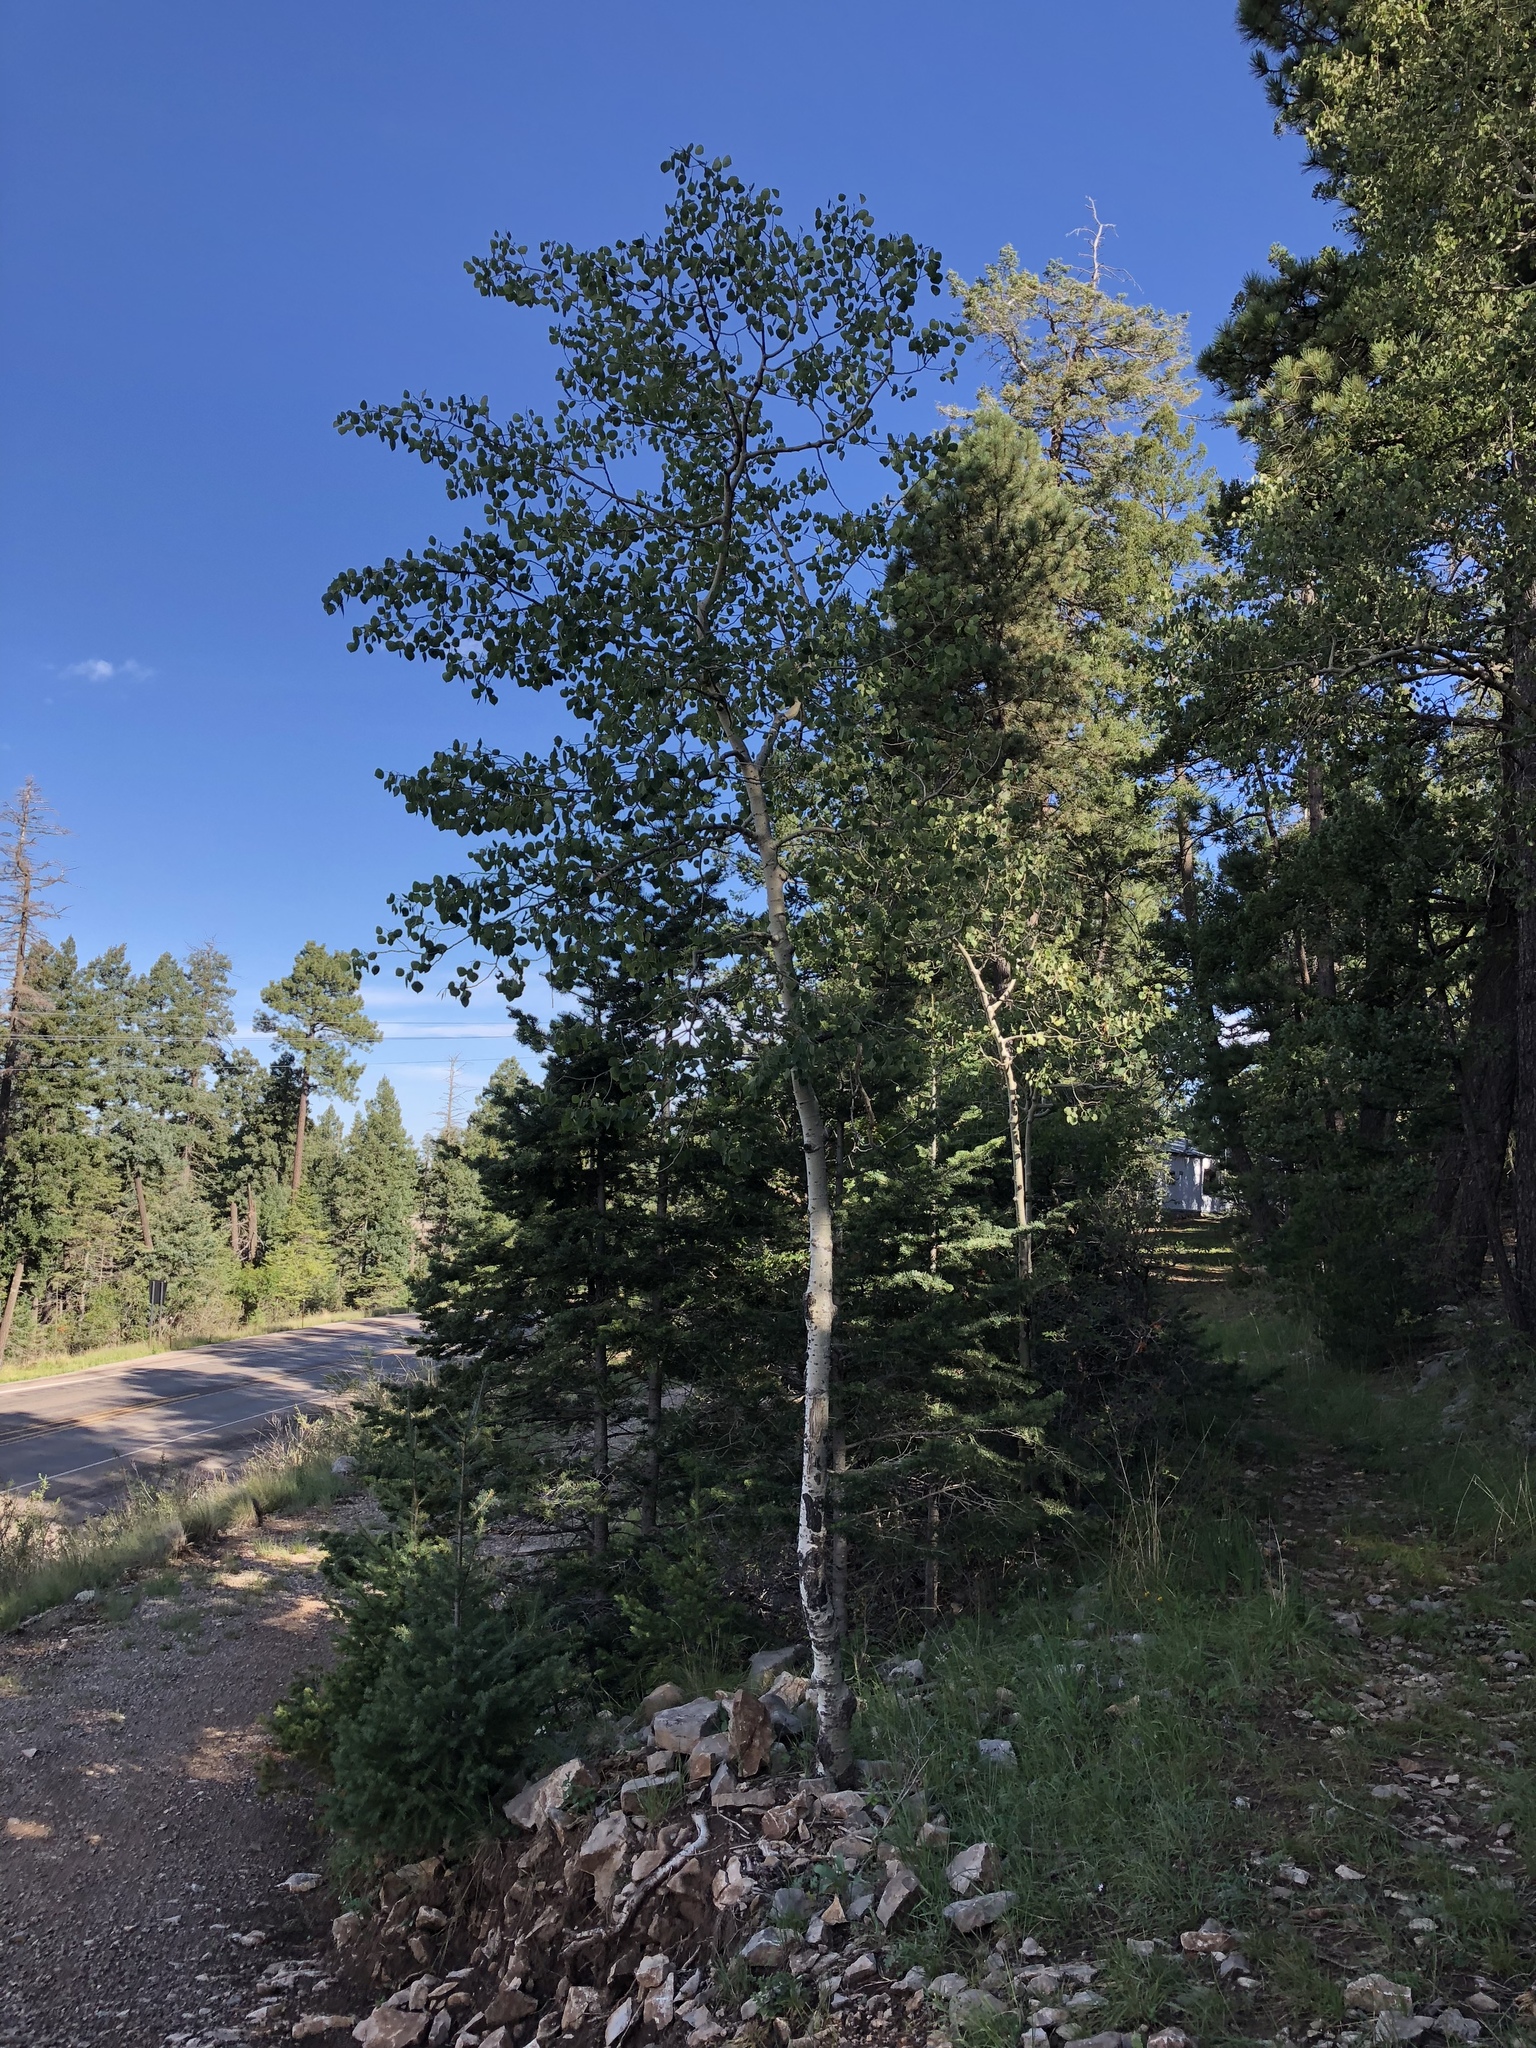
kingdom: Plantae
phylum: Tracheophyta
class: Magnoliopsida
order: Malpighiales
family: Salicaceae
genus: Populus
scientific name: Populus tremuloides
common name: Quaking aspen
